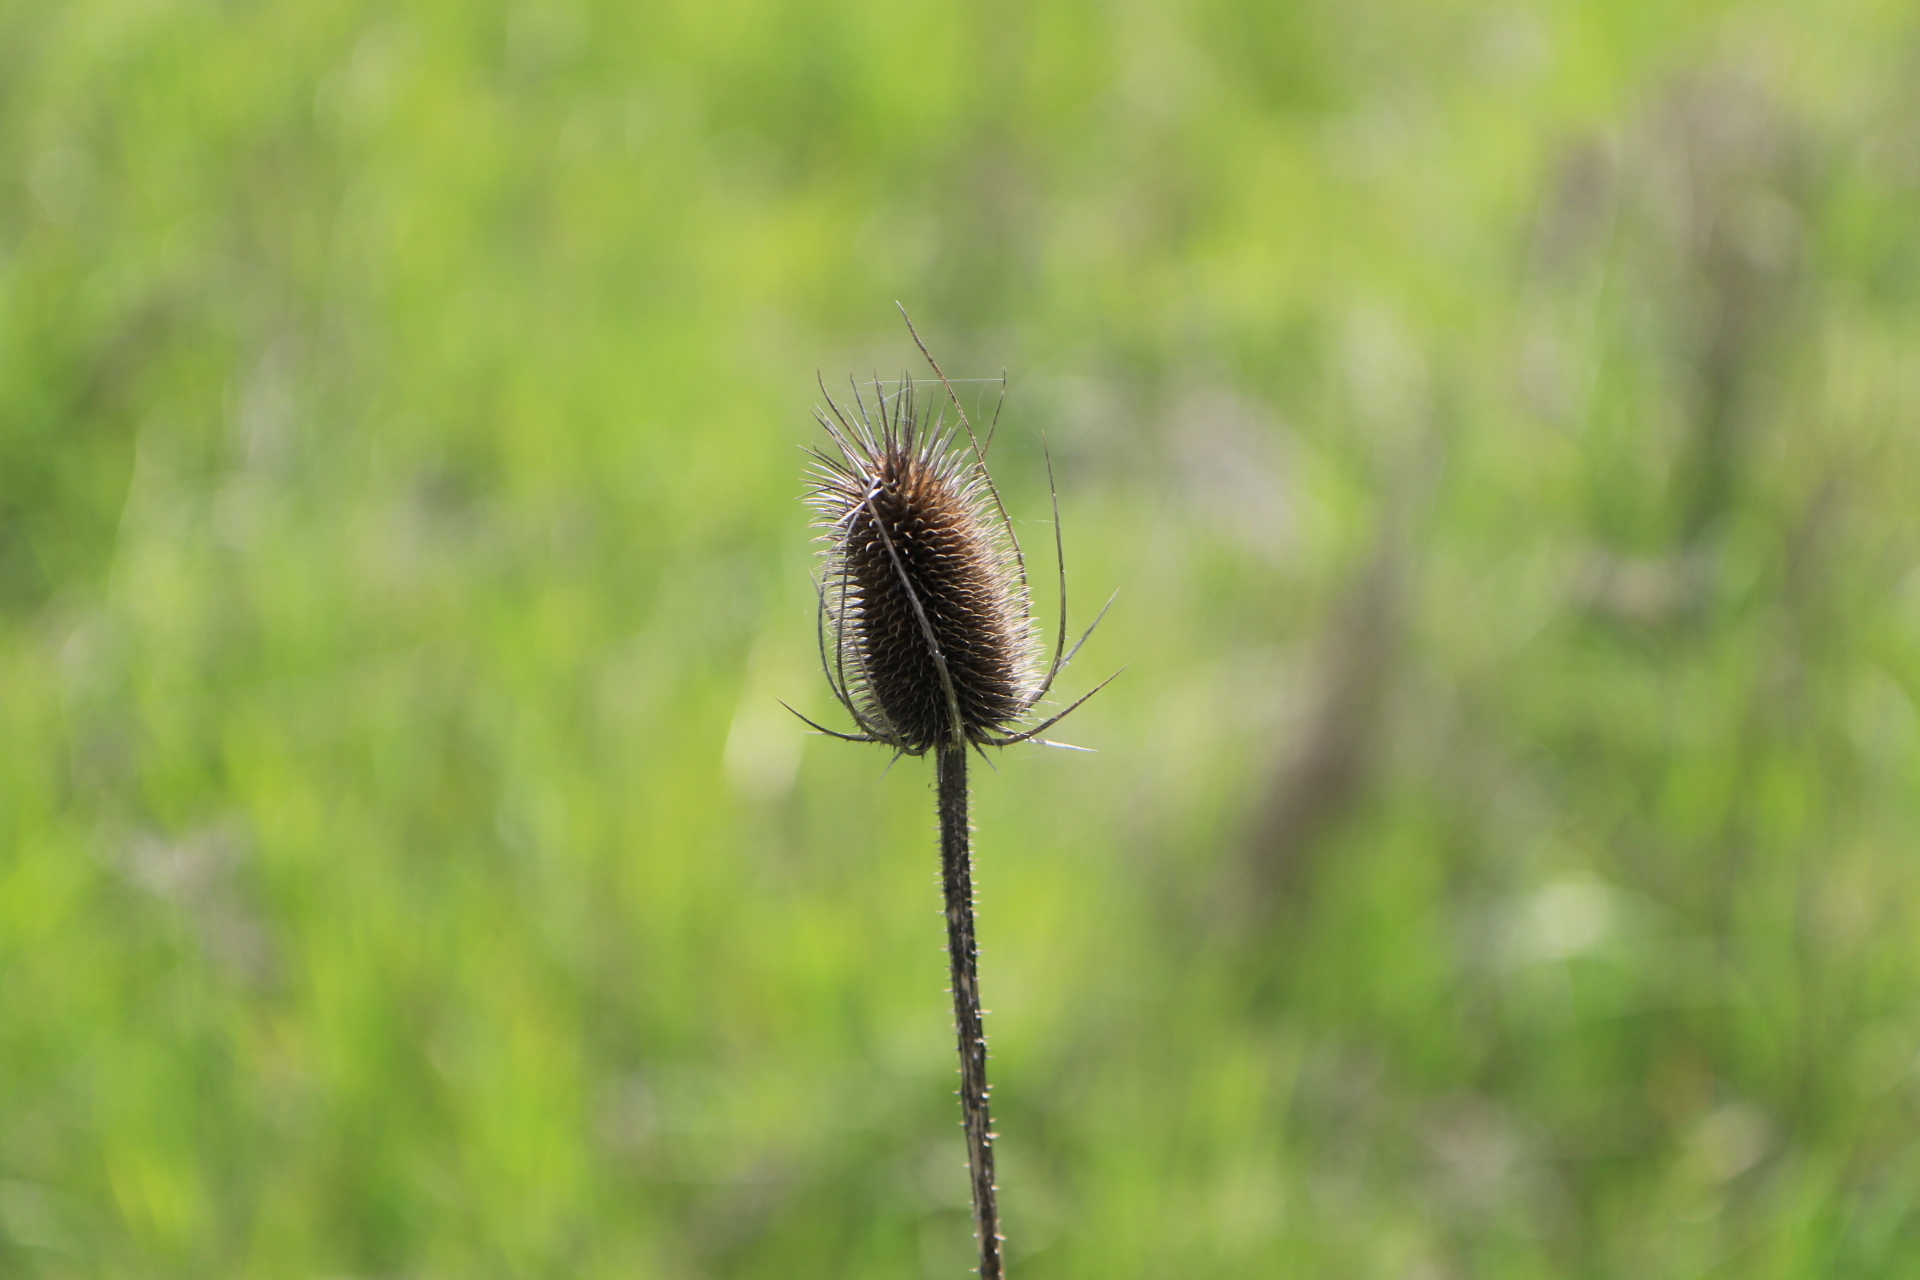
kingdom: Plantae
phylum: Tracheophyta
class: Magnoliopsida
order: Dipsacales
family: Caprifoliaceae
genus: Dipsacus
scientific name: Dipsacus fullonum
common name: Teasel
